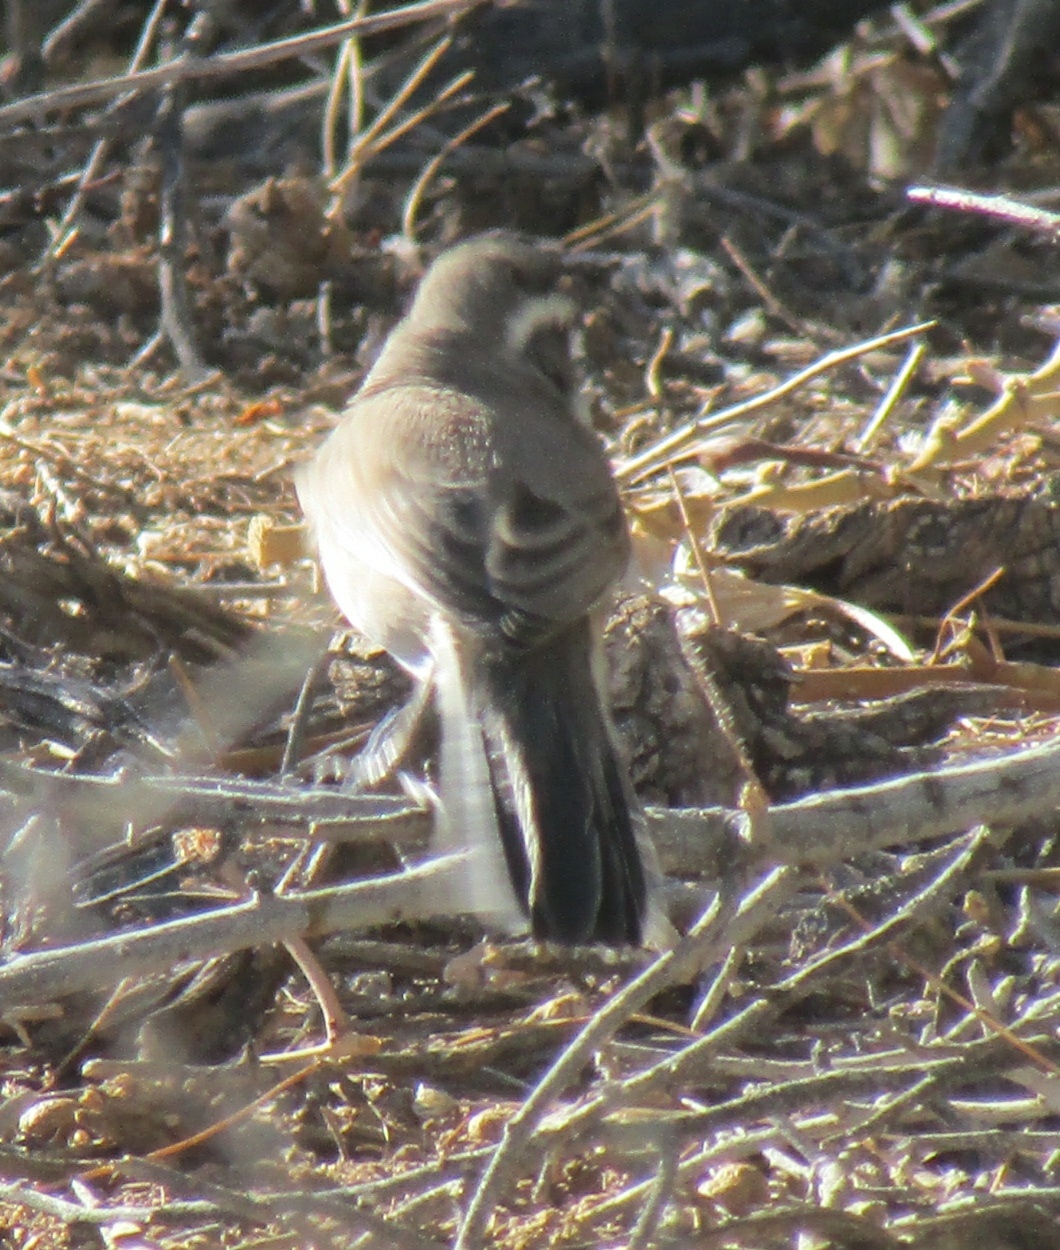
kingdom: Animalia
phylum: Chordata
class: Aves
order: Passeriformes
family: Passerellidae
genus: Amphispiza
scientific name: Amphispiza bilineata
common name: Black-throated sparrow
